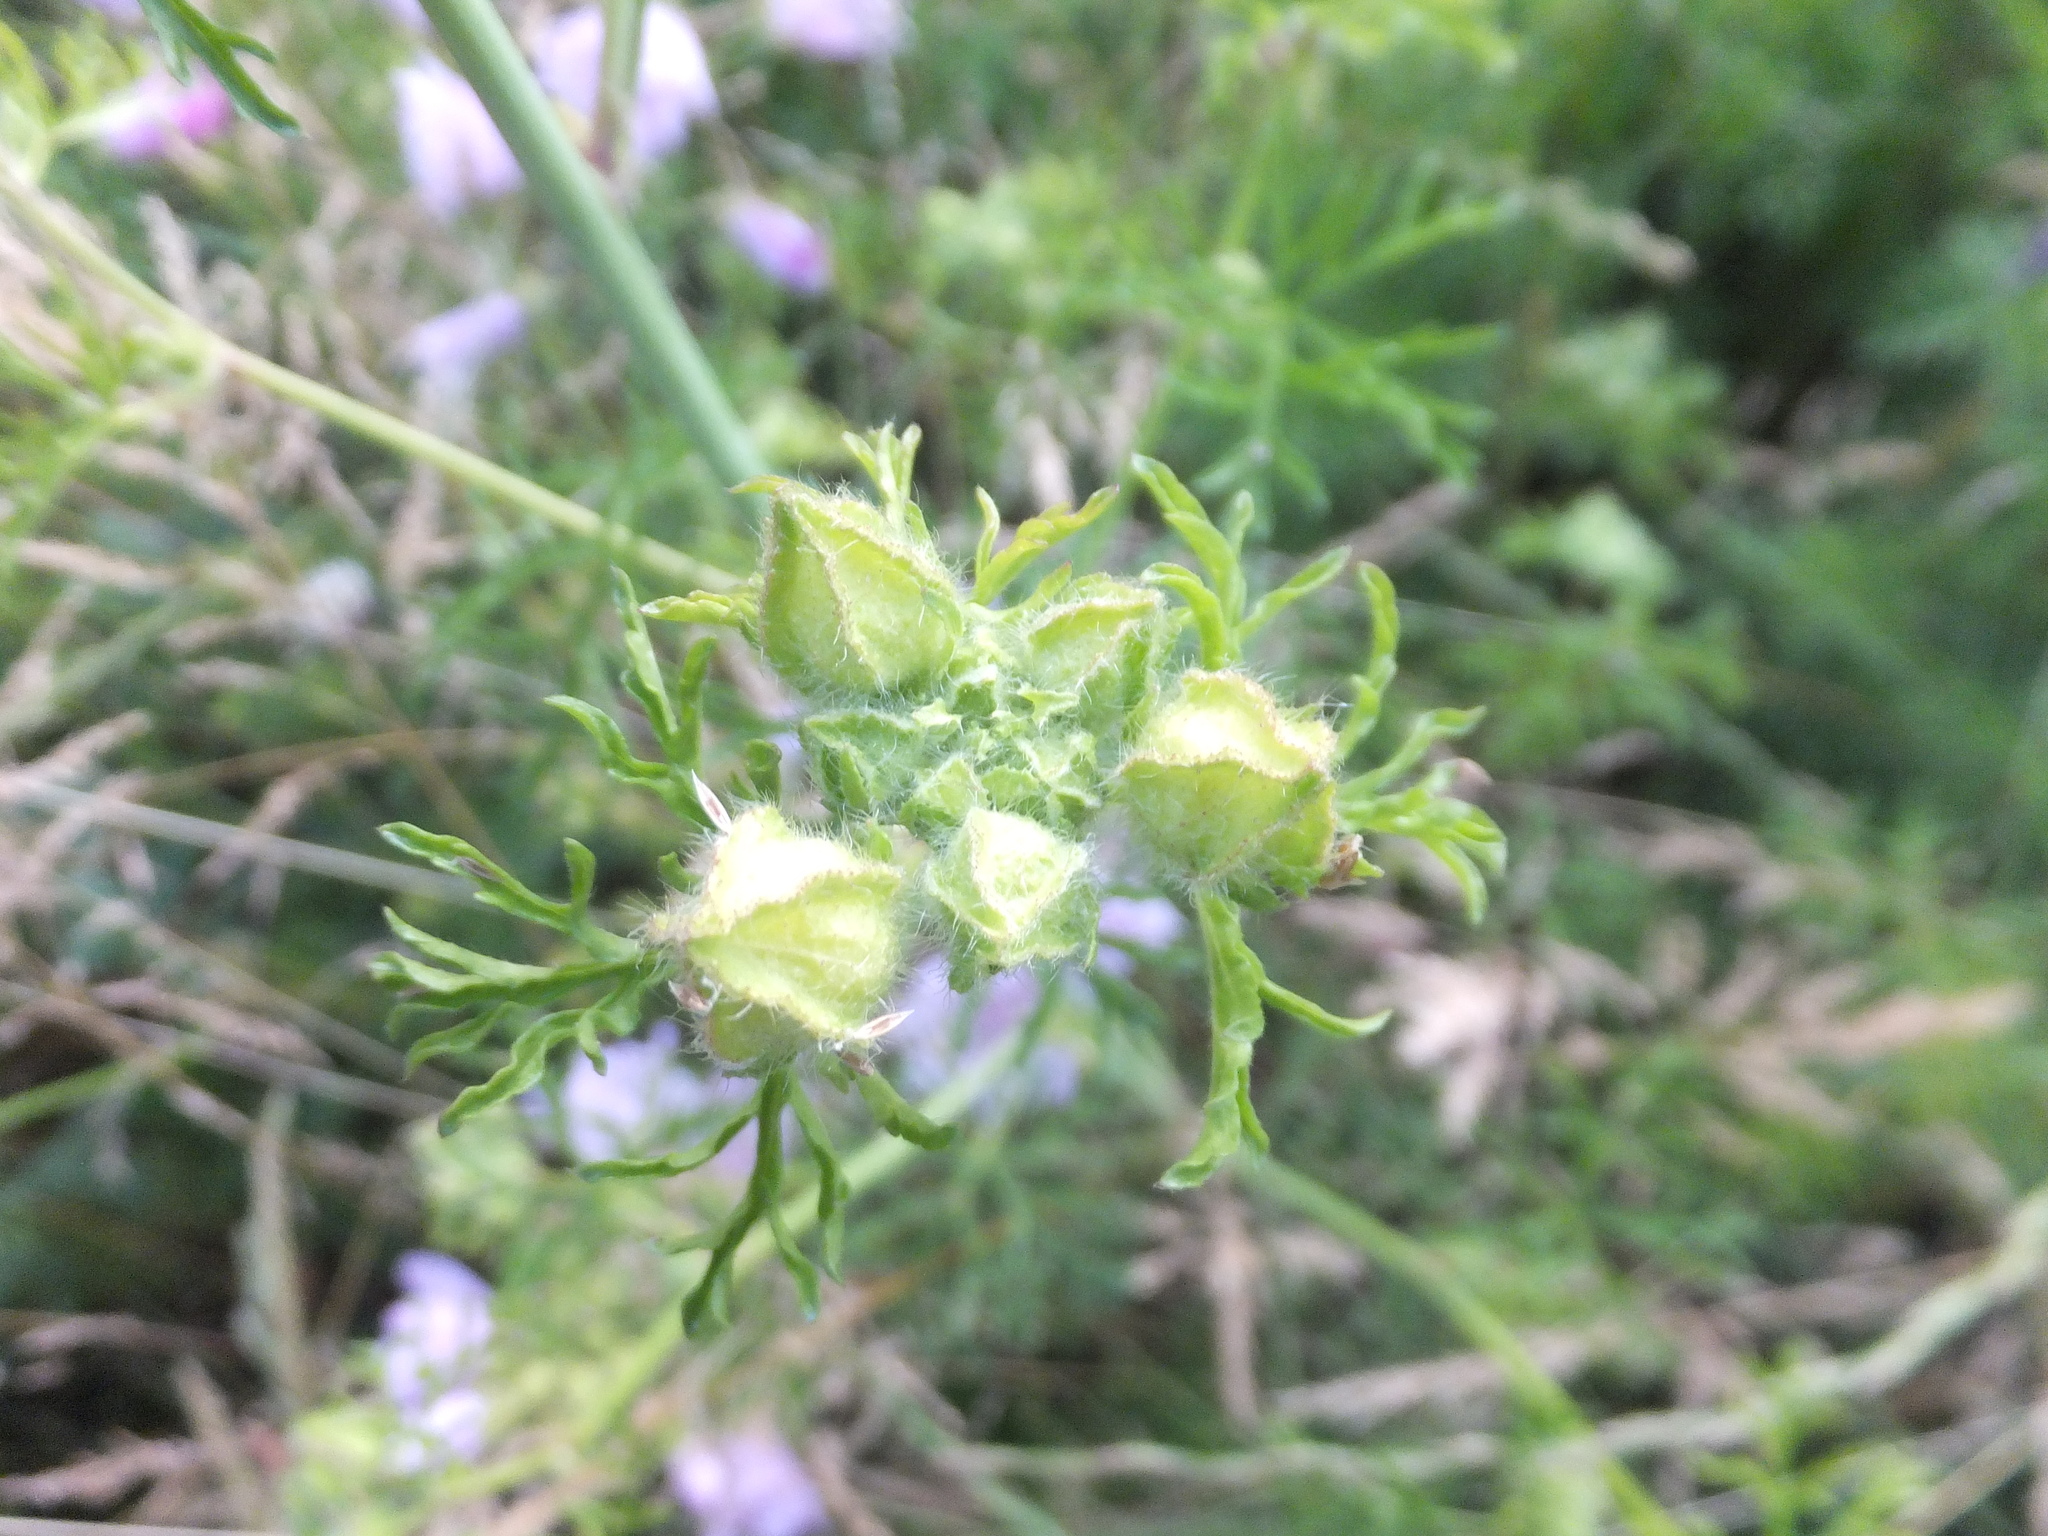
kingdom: Plantae
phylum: Tracheophyta
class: Magnoliopsida
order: Malvales
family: Malvaceae
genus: Malva
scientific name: Malva moschata
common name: Musk mallow
